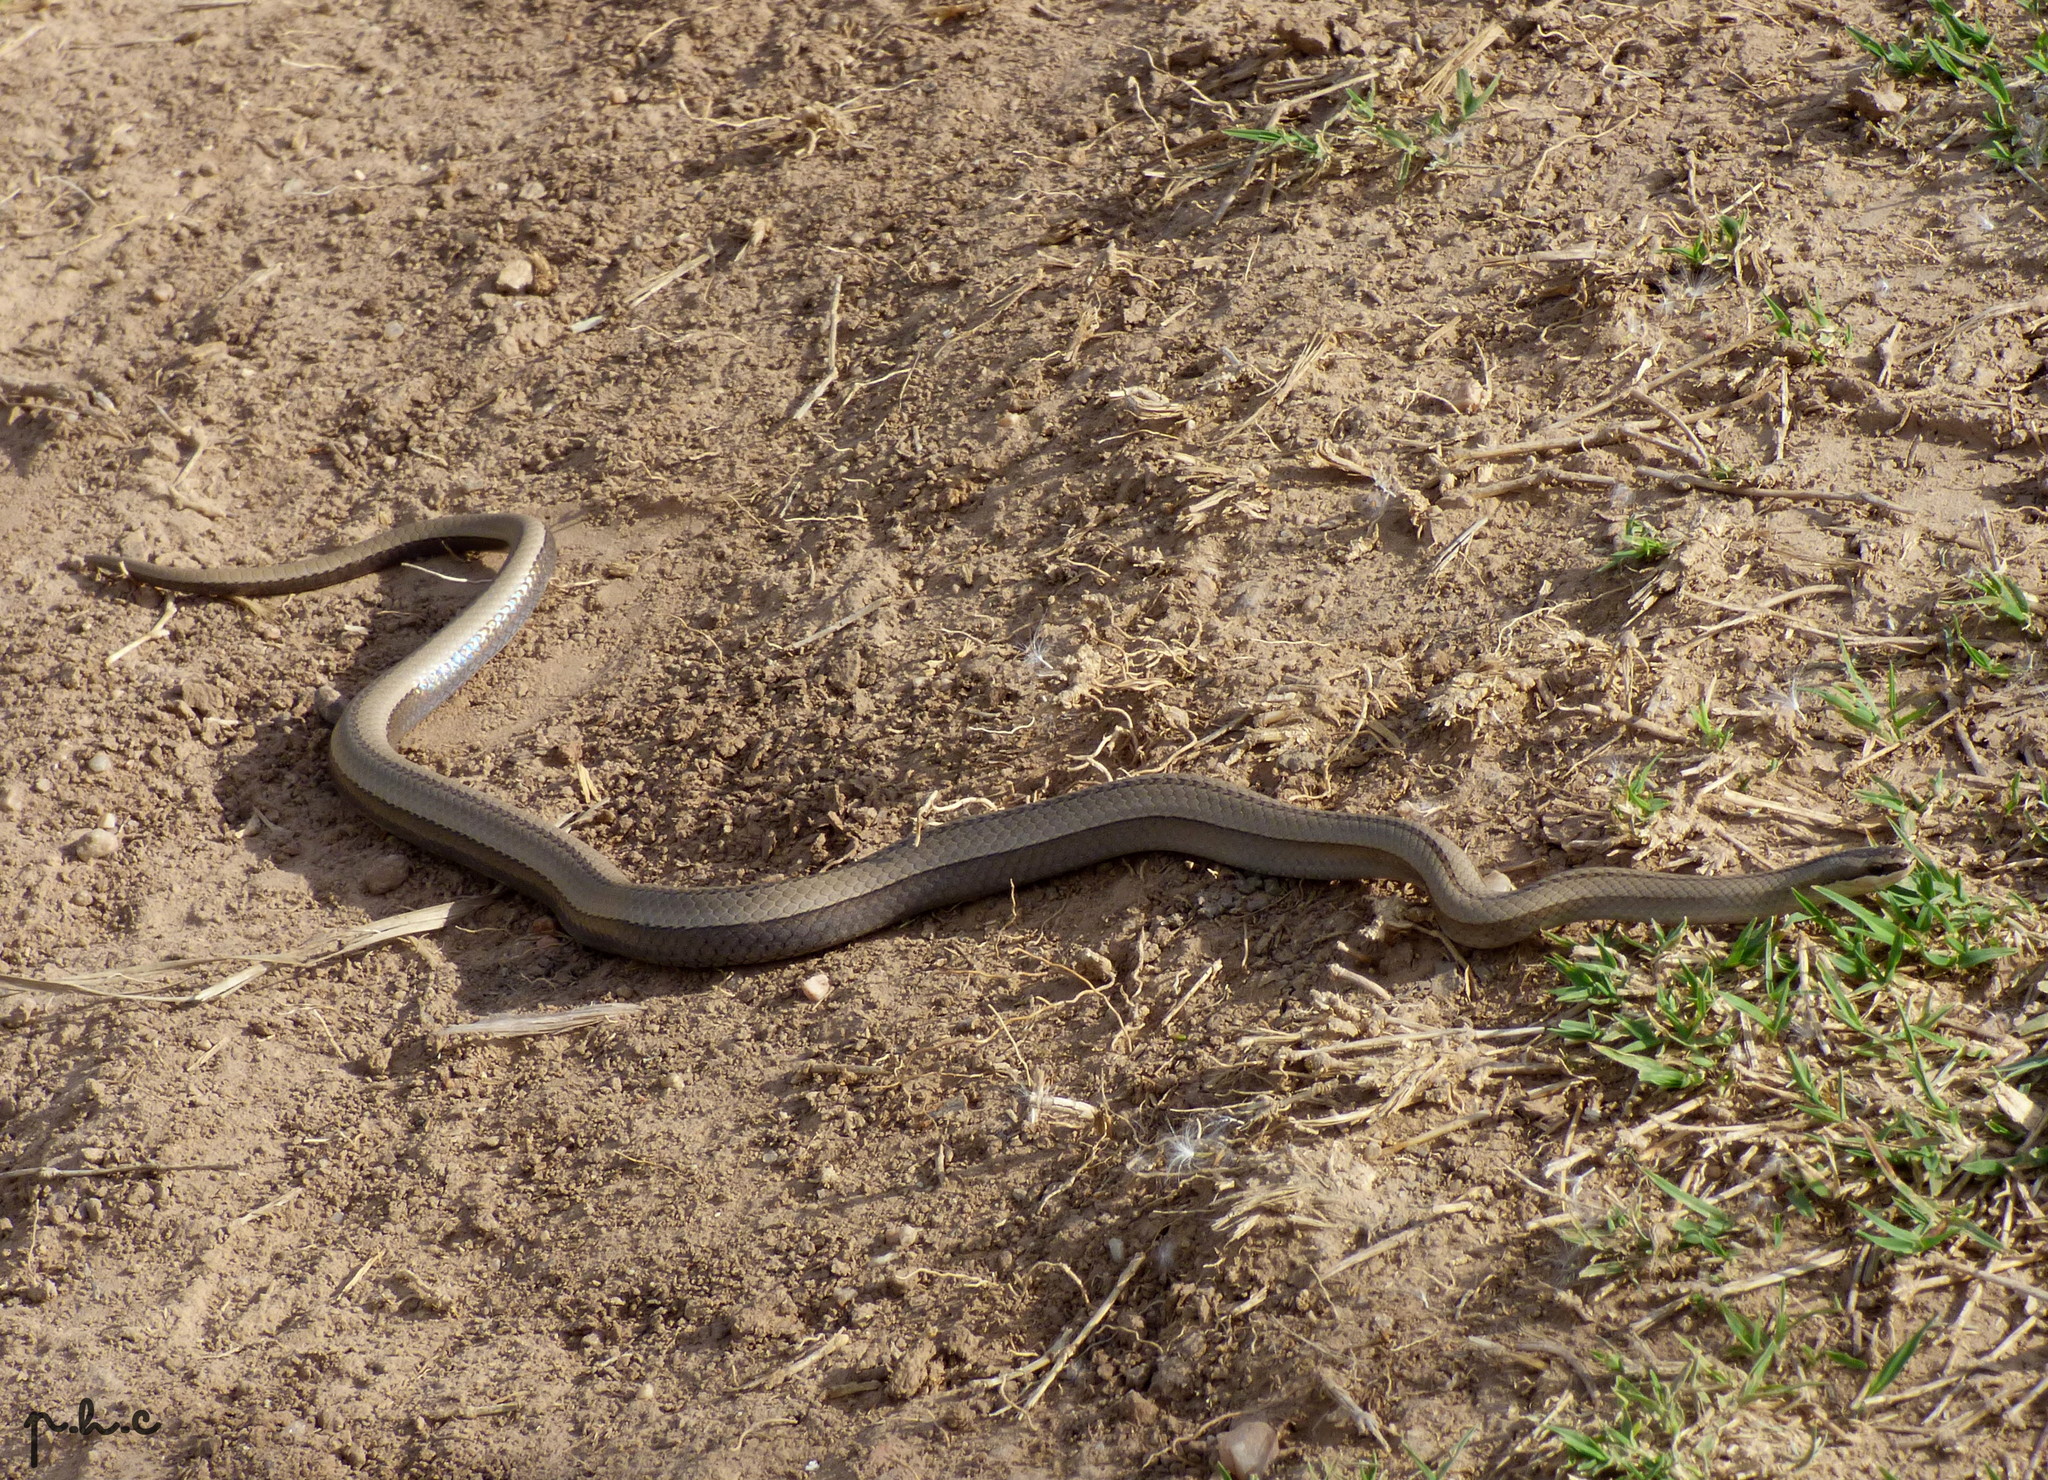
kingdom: Animalia
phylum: Chordata
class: Squamata
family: Colubridae
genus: Psomophis
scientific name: Psomophis obtusus
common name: Wide ground snake
